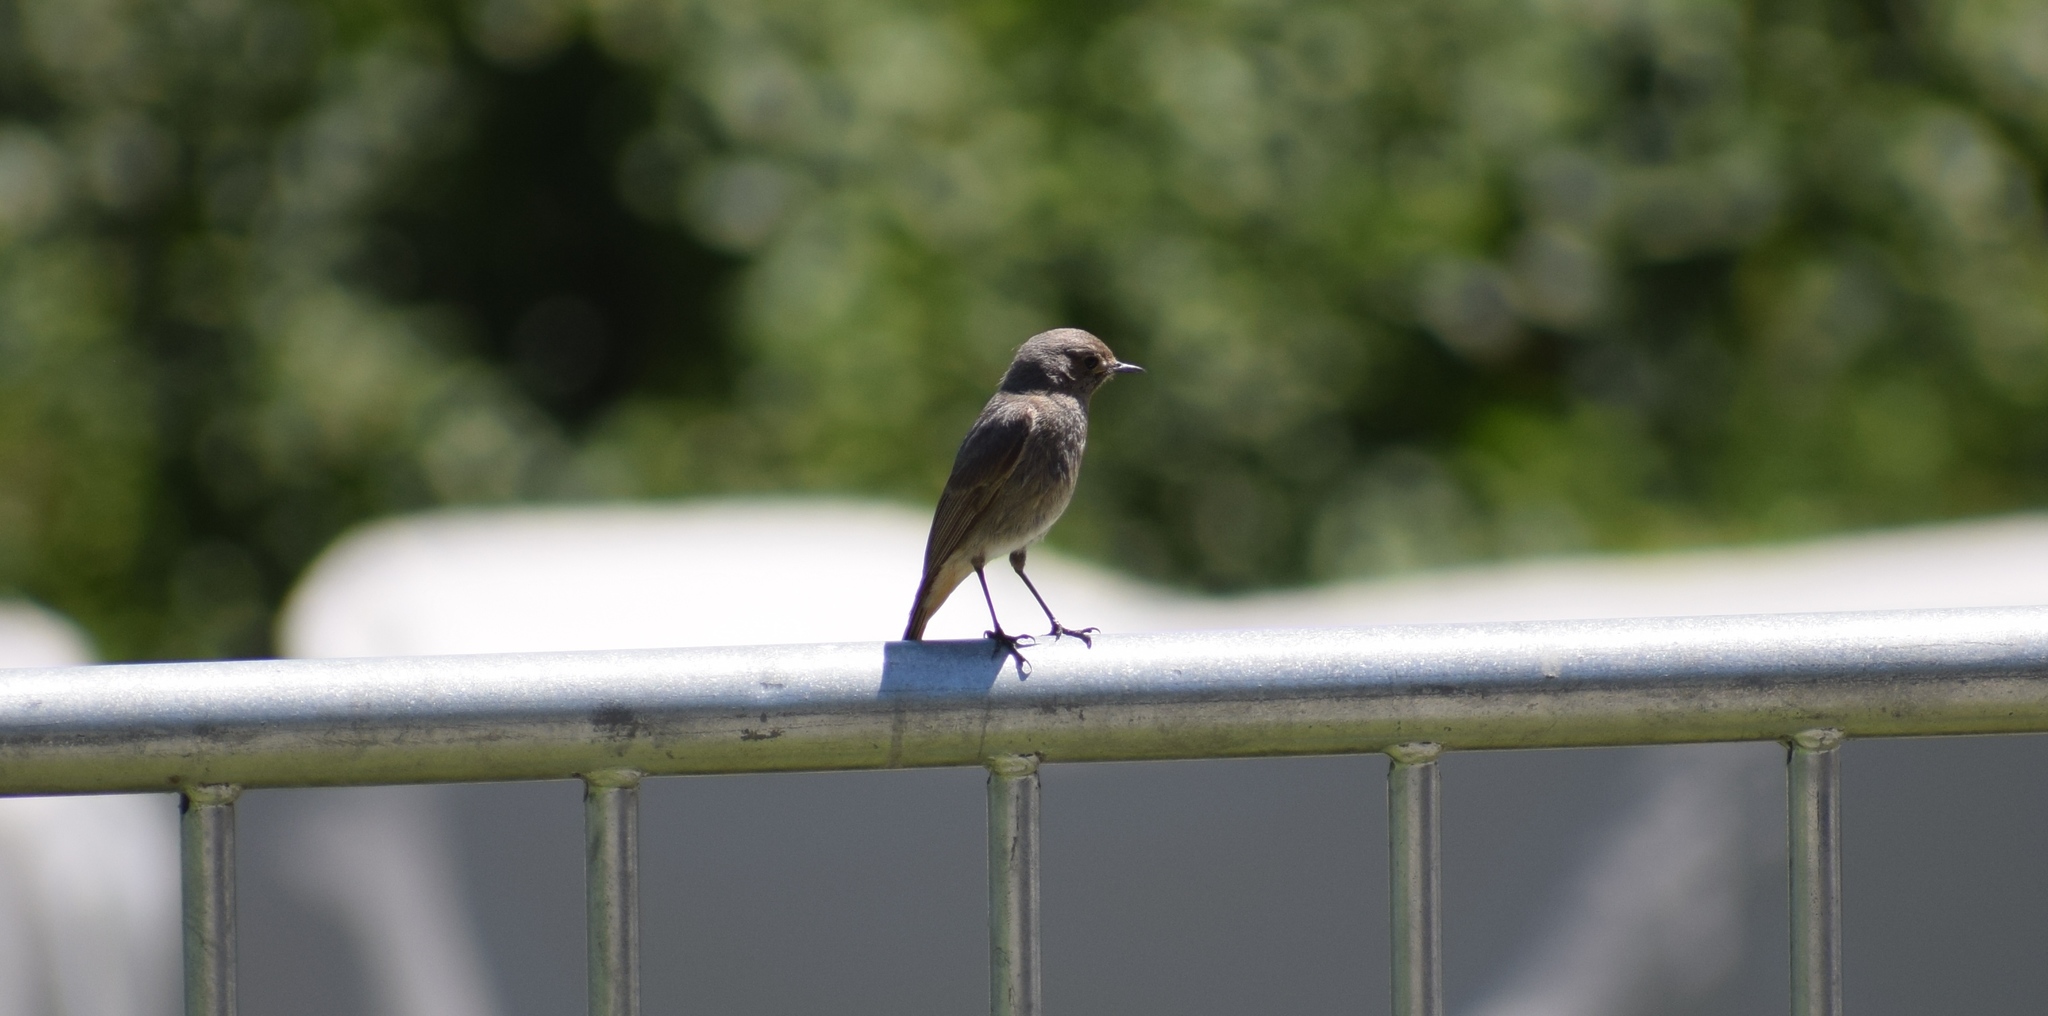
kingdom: Animalia
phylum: Chordata
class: Aves
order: Passeriformes
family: Muscicapidae
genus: Phoenicurus
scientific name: Phoenicurus ochruros
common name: Black redstart
